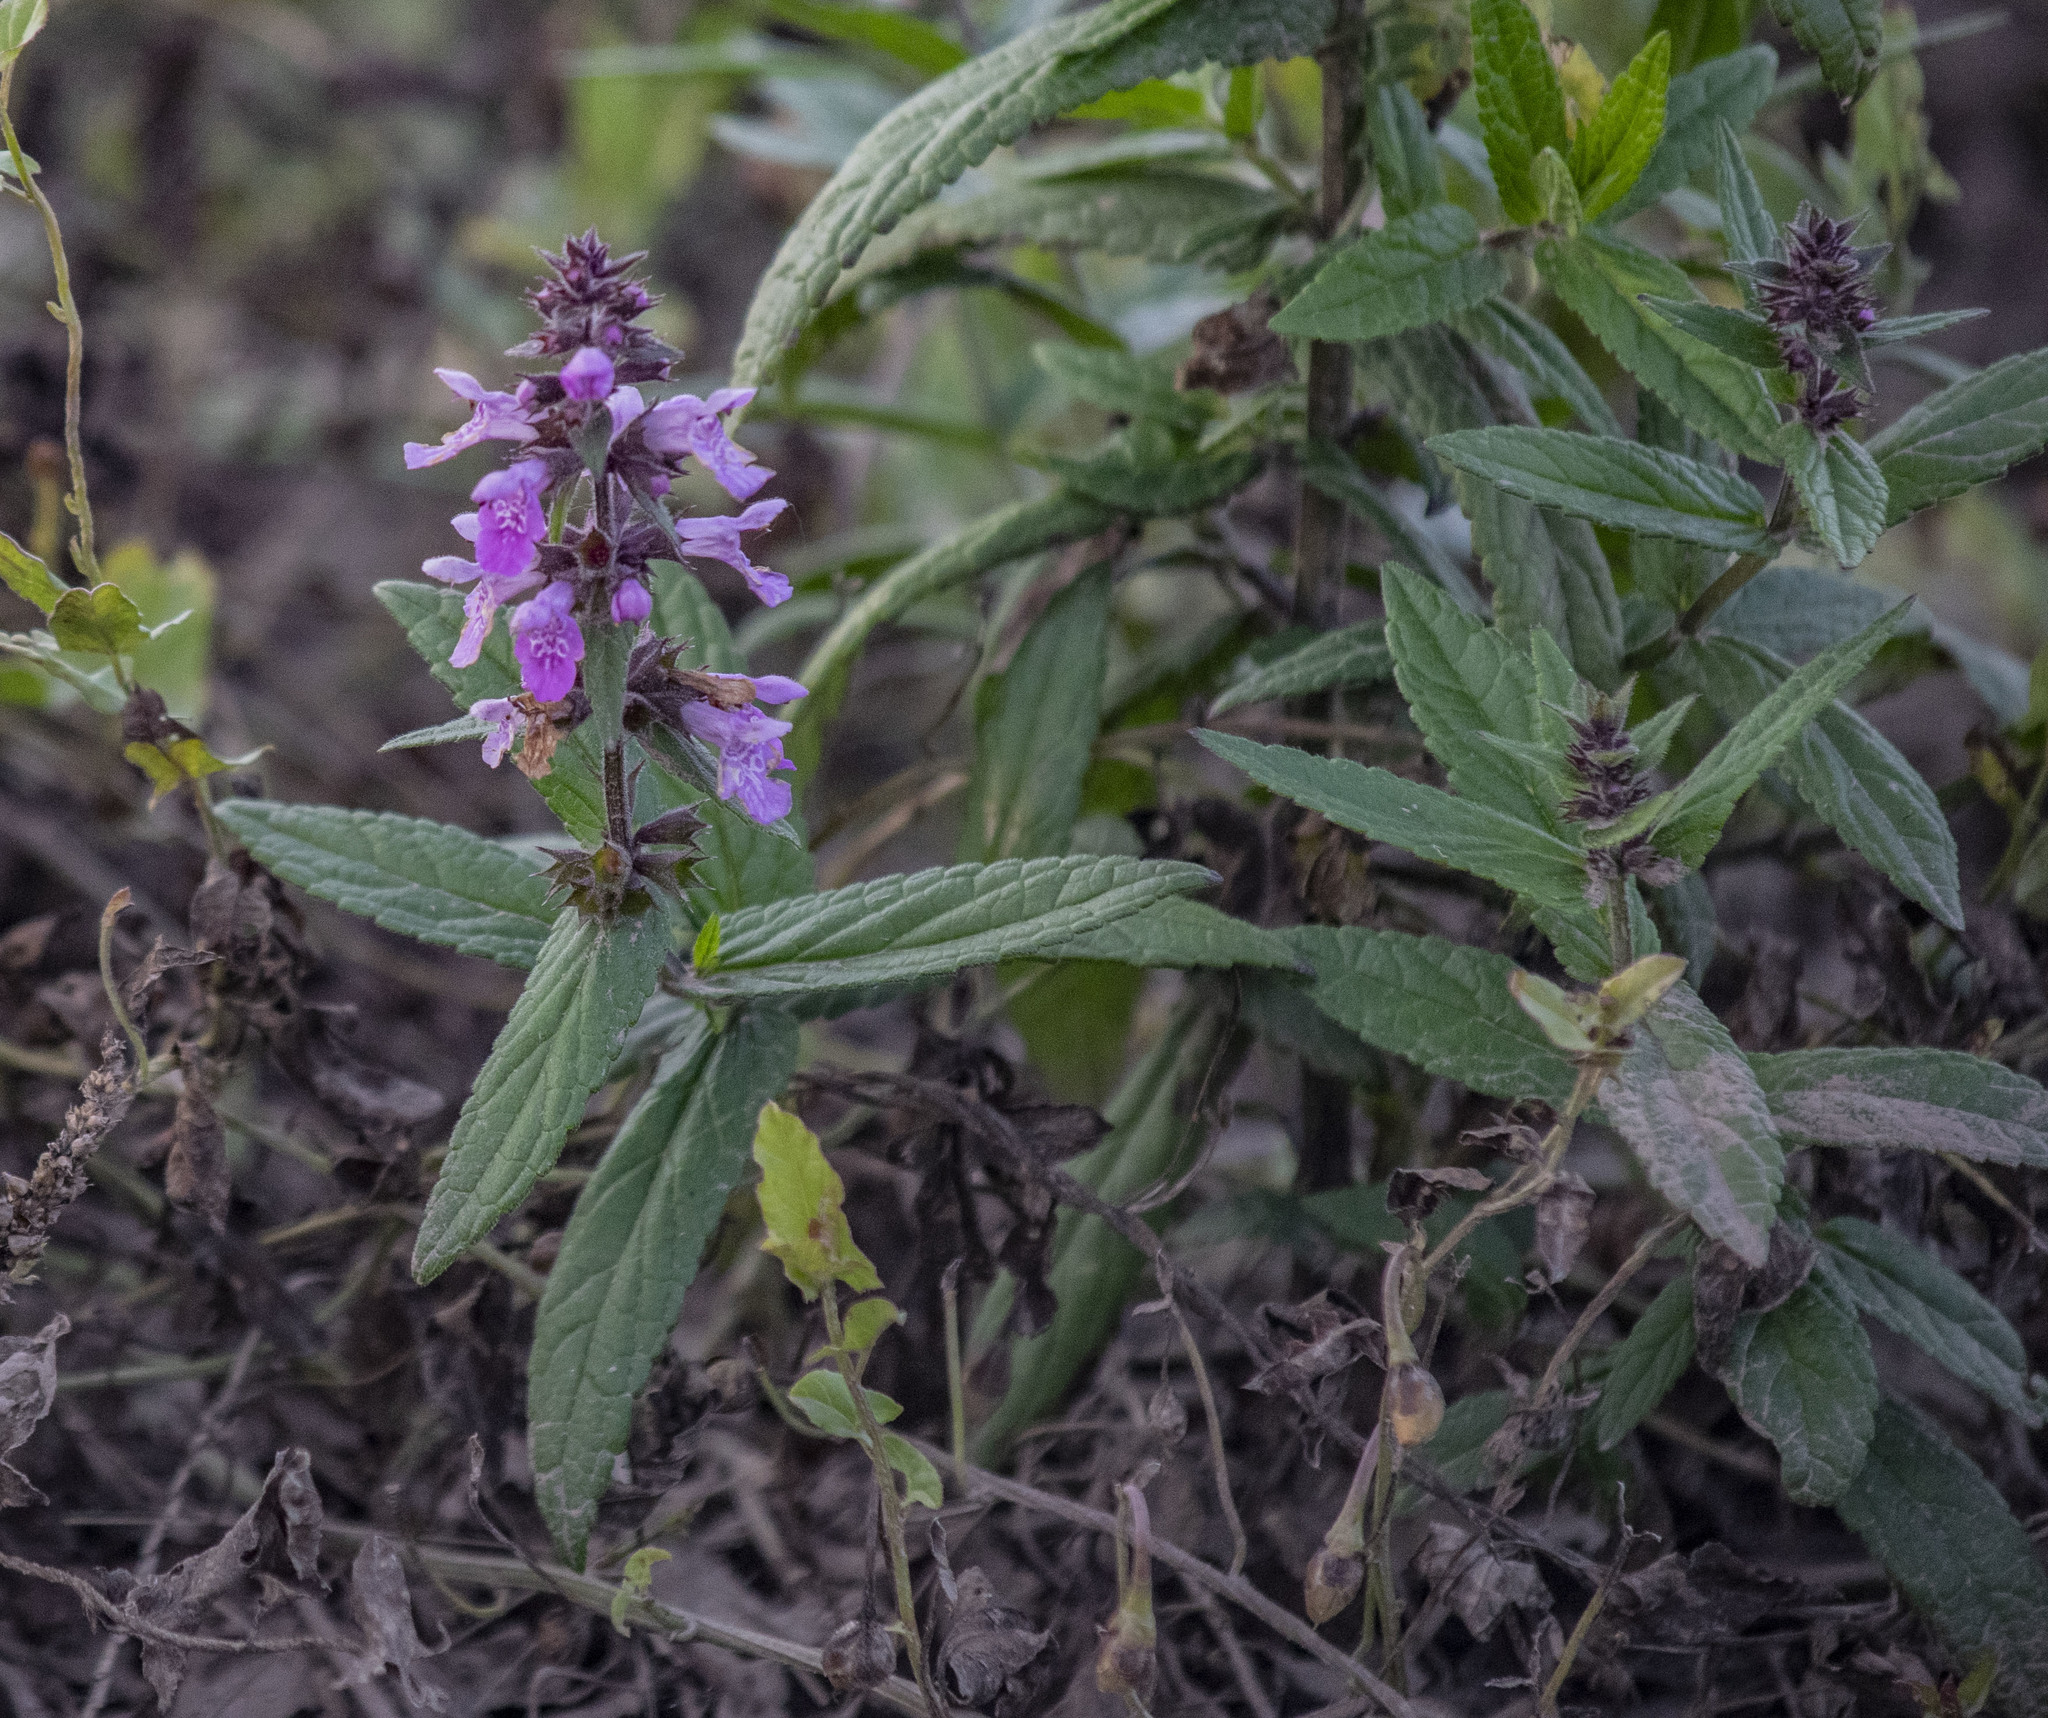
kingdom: Plantae
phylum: Tracheophyta
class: Magnoliopsida
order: Lamiales
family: Lamiaceae
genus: Stachys
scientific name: Stachys palustris
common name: Marsh woundwort
